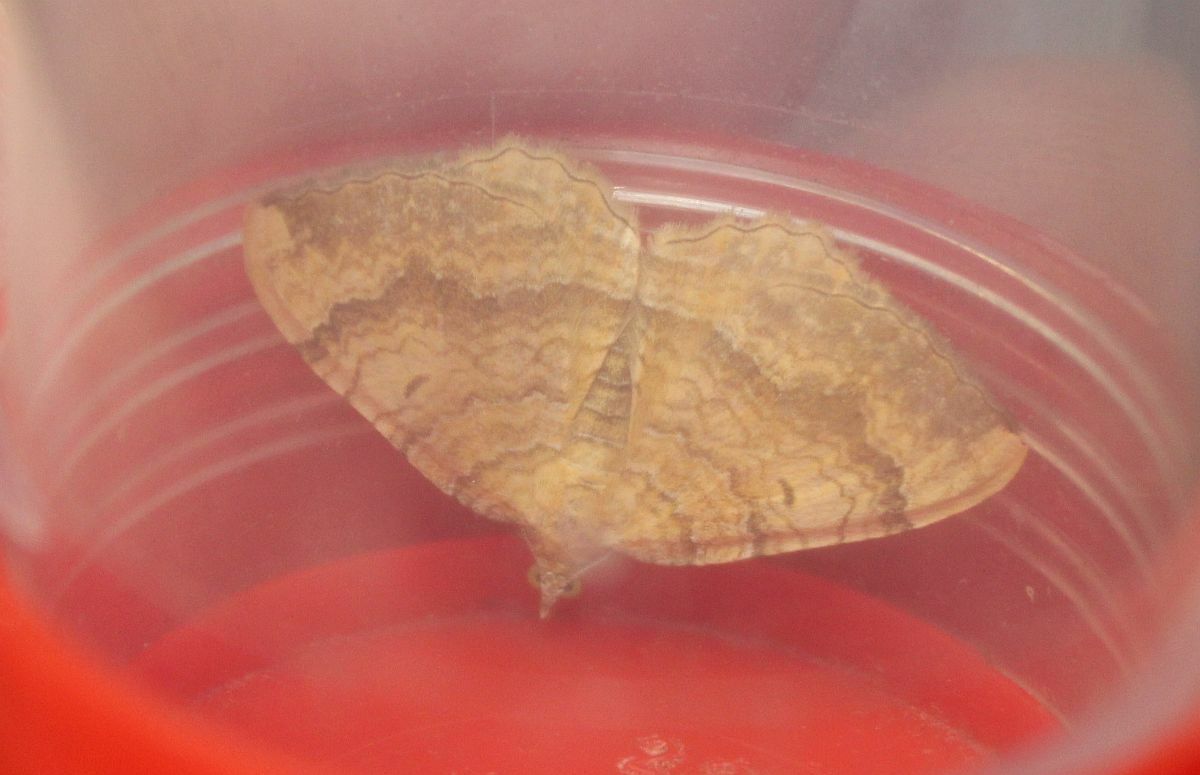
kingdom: Animalia
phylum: Arthropoda
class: Insecta
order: Lepidoptera
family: Geometridae
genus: Camptogramma
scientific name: Camptogramma bilineata
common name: Yellow shell
